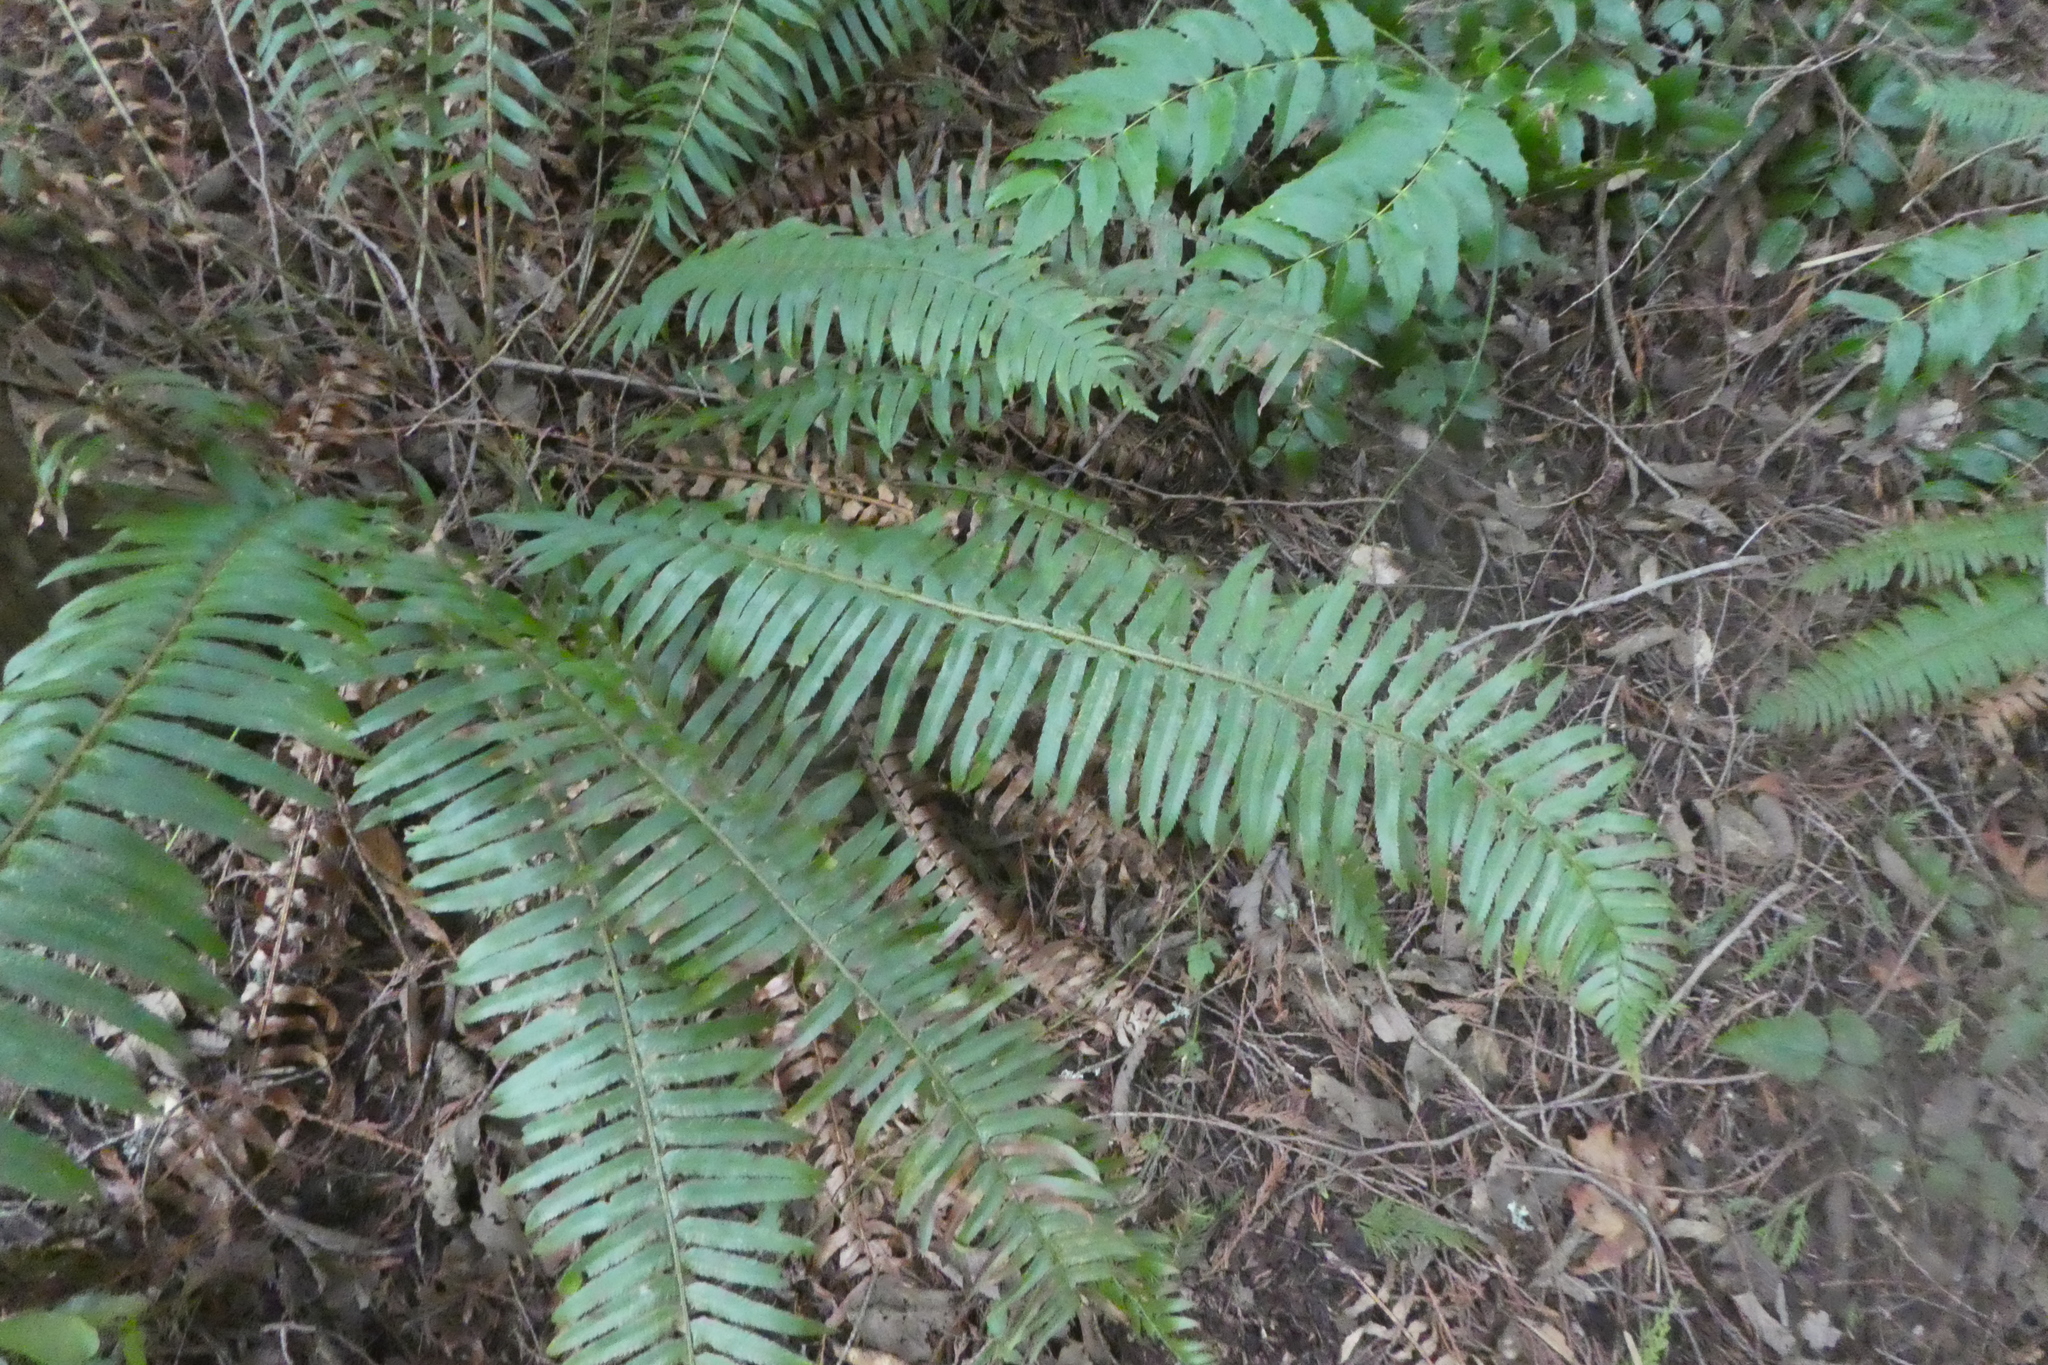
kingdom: Plantae
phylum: Tracheophyta
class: Polypodiopsida
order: Polypodiales
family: Dryopteridaceae
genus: Polystichum
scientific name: Polystichum munitum
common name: Western sword-fern
